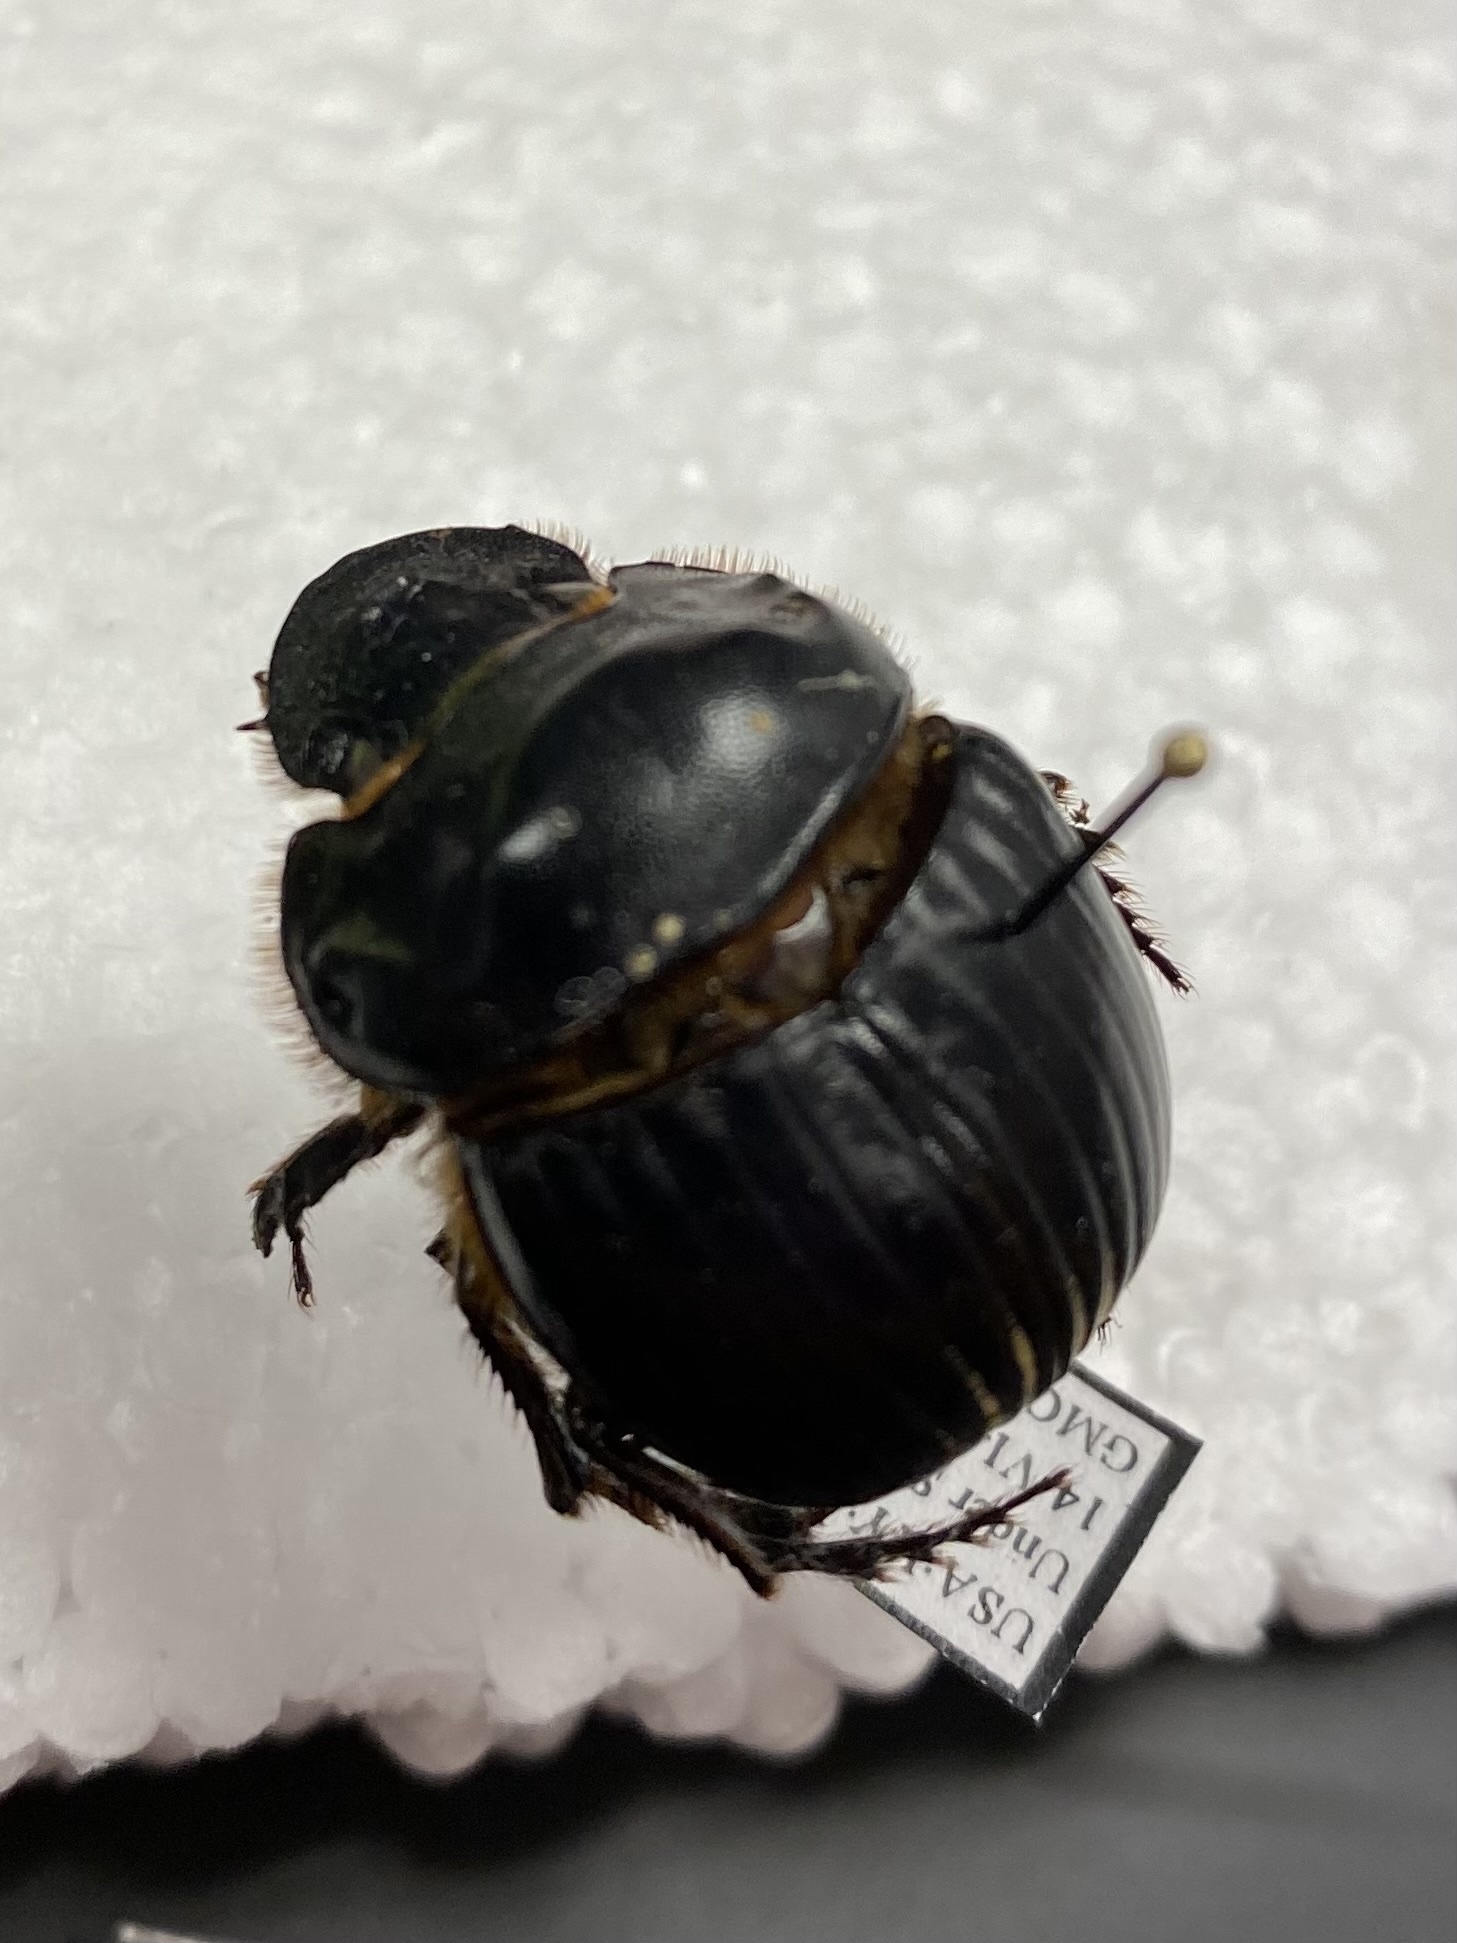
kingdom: Animalia
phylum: Arthropoda
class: Insecta
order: Coleoptera
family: Scarabaeidae
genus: Dichotomius
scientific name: Dichotomius carolinus
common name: Carolina copris
